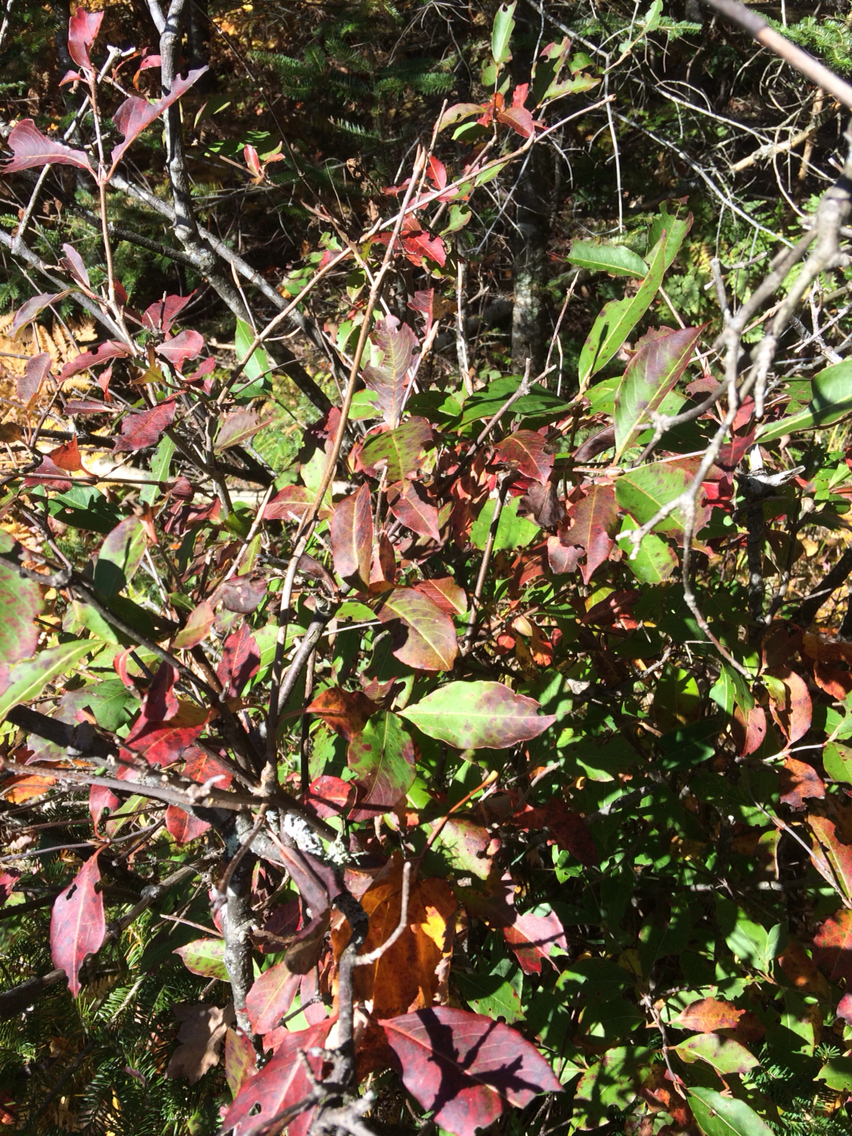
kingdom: Plantae
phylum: Tracheophyta
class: Magnoliopsida
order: Dipsacales
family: Viburnaceae
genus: Viburnum
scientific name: Viburnum cassinoides
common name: Swamp haw
